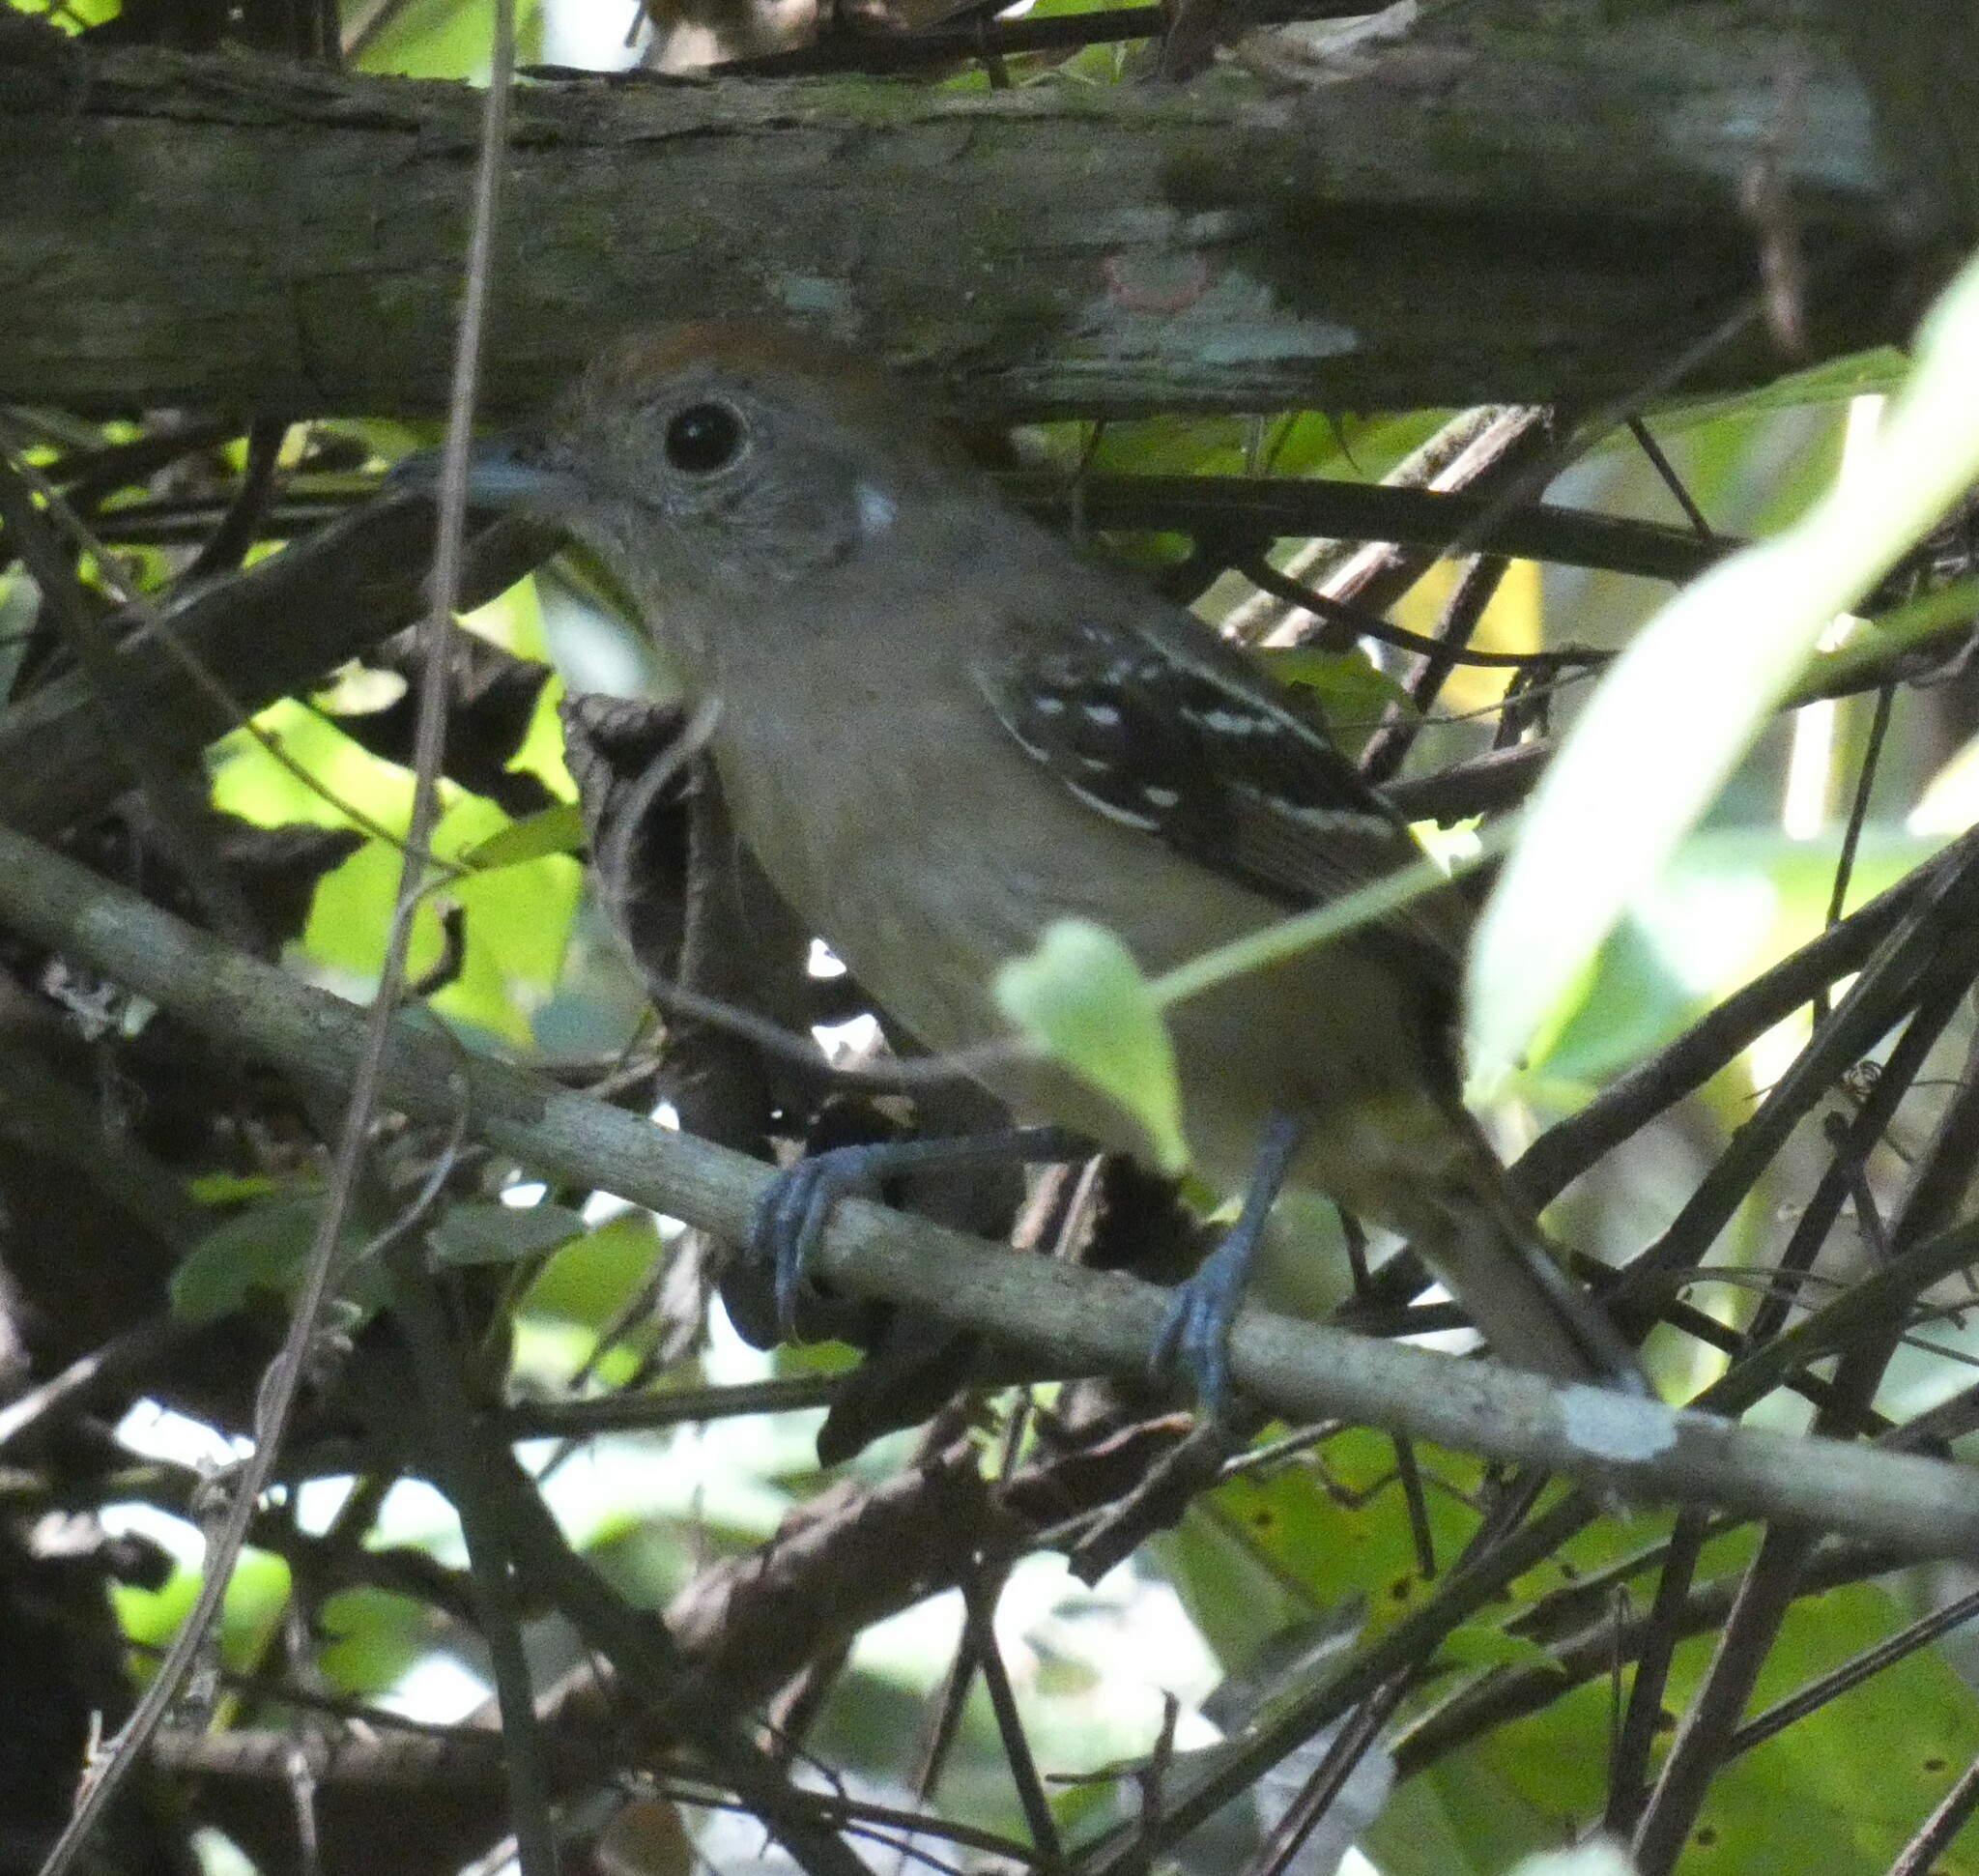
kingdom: Animalia
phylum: Chordata
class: Aves
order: Passeriformes
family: Thamnophilidae
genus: Thamnophilus
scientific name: Thamnophilus ambiguus
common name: Sooretama slaty antshrike
